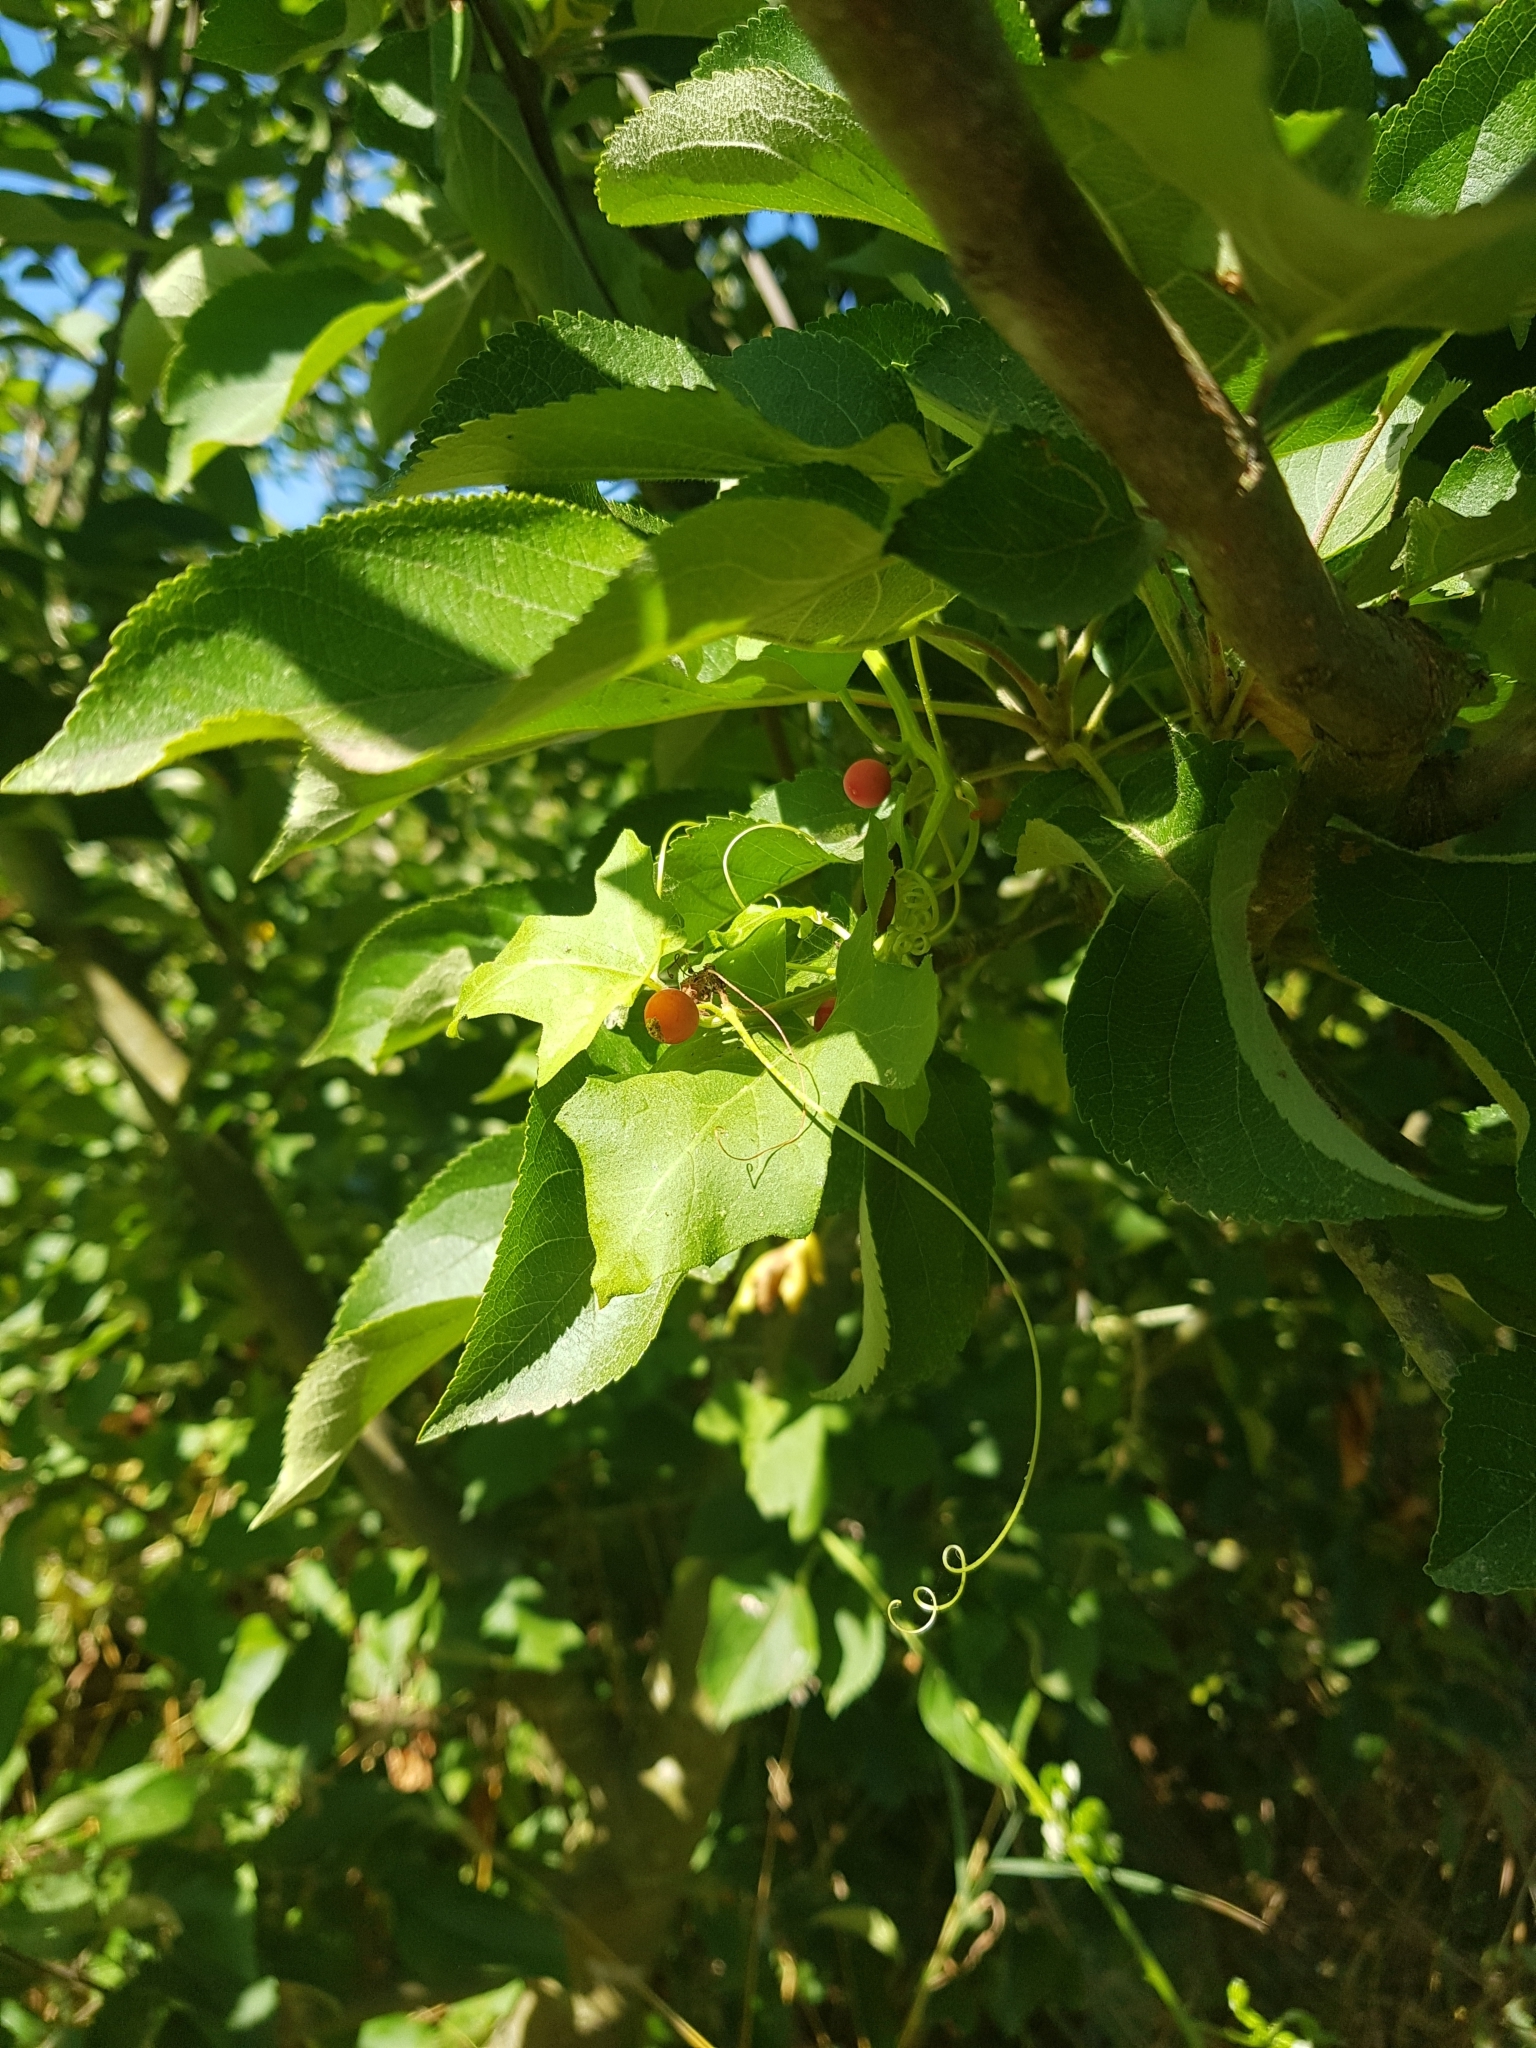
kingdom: Plantae
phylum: Tracheophyta
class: Magnoliopsida
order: Cucurbitales
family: Cucurbitaceae
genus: Bryonia
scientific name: Bryonia cretica
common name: Cretan bryony
